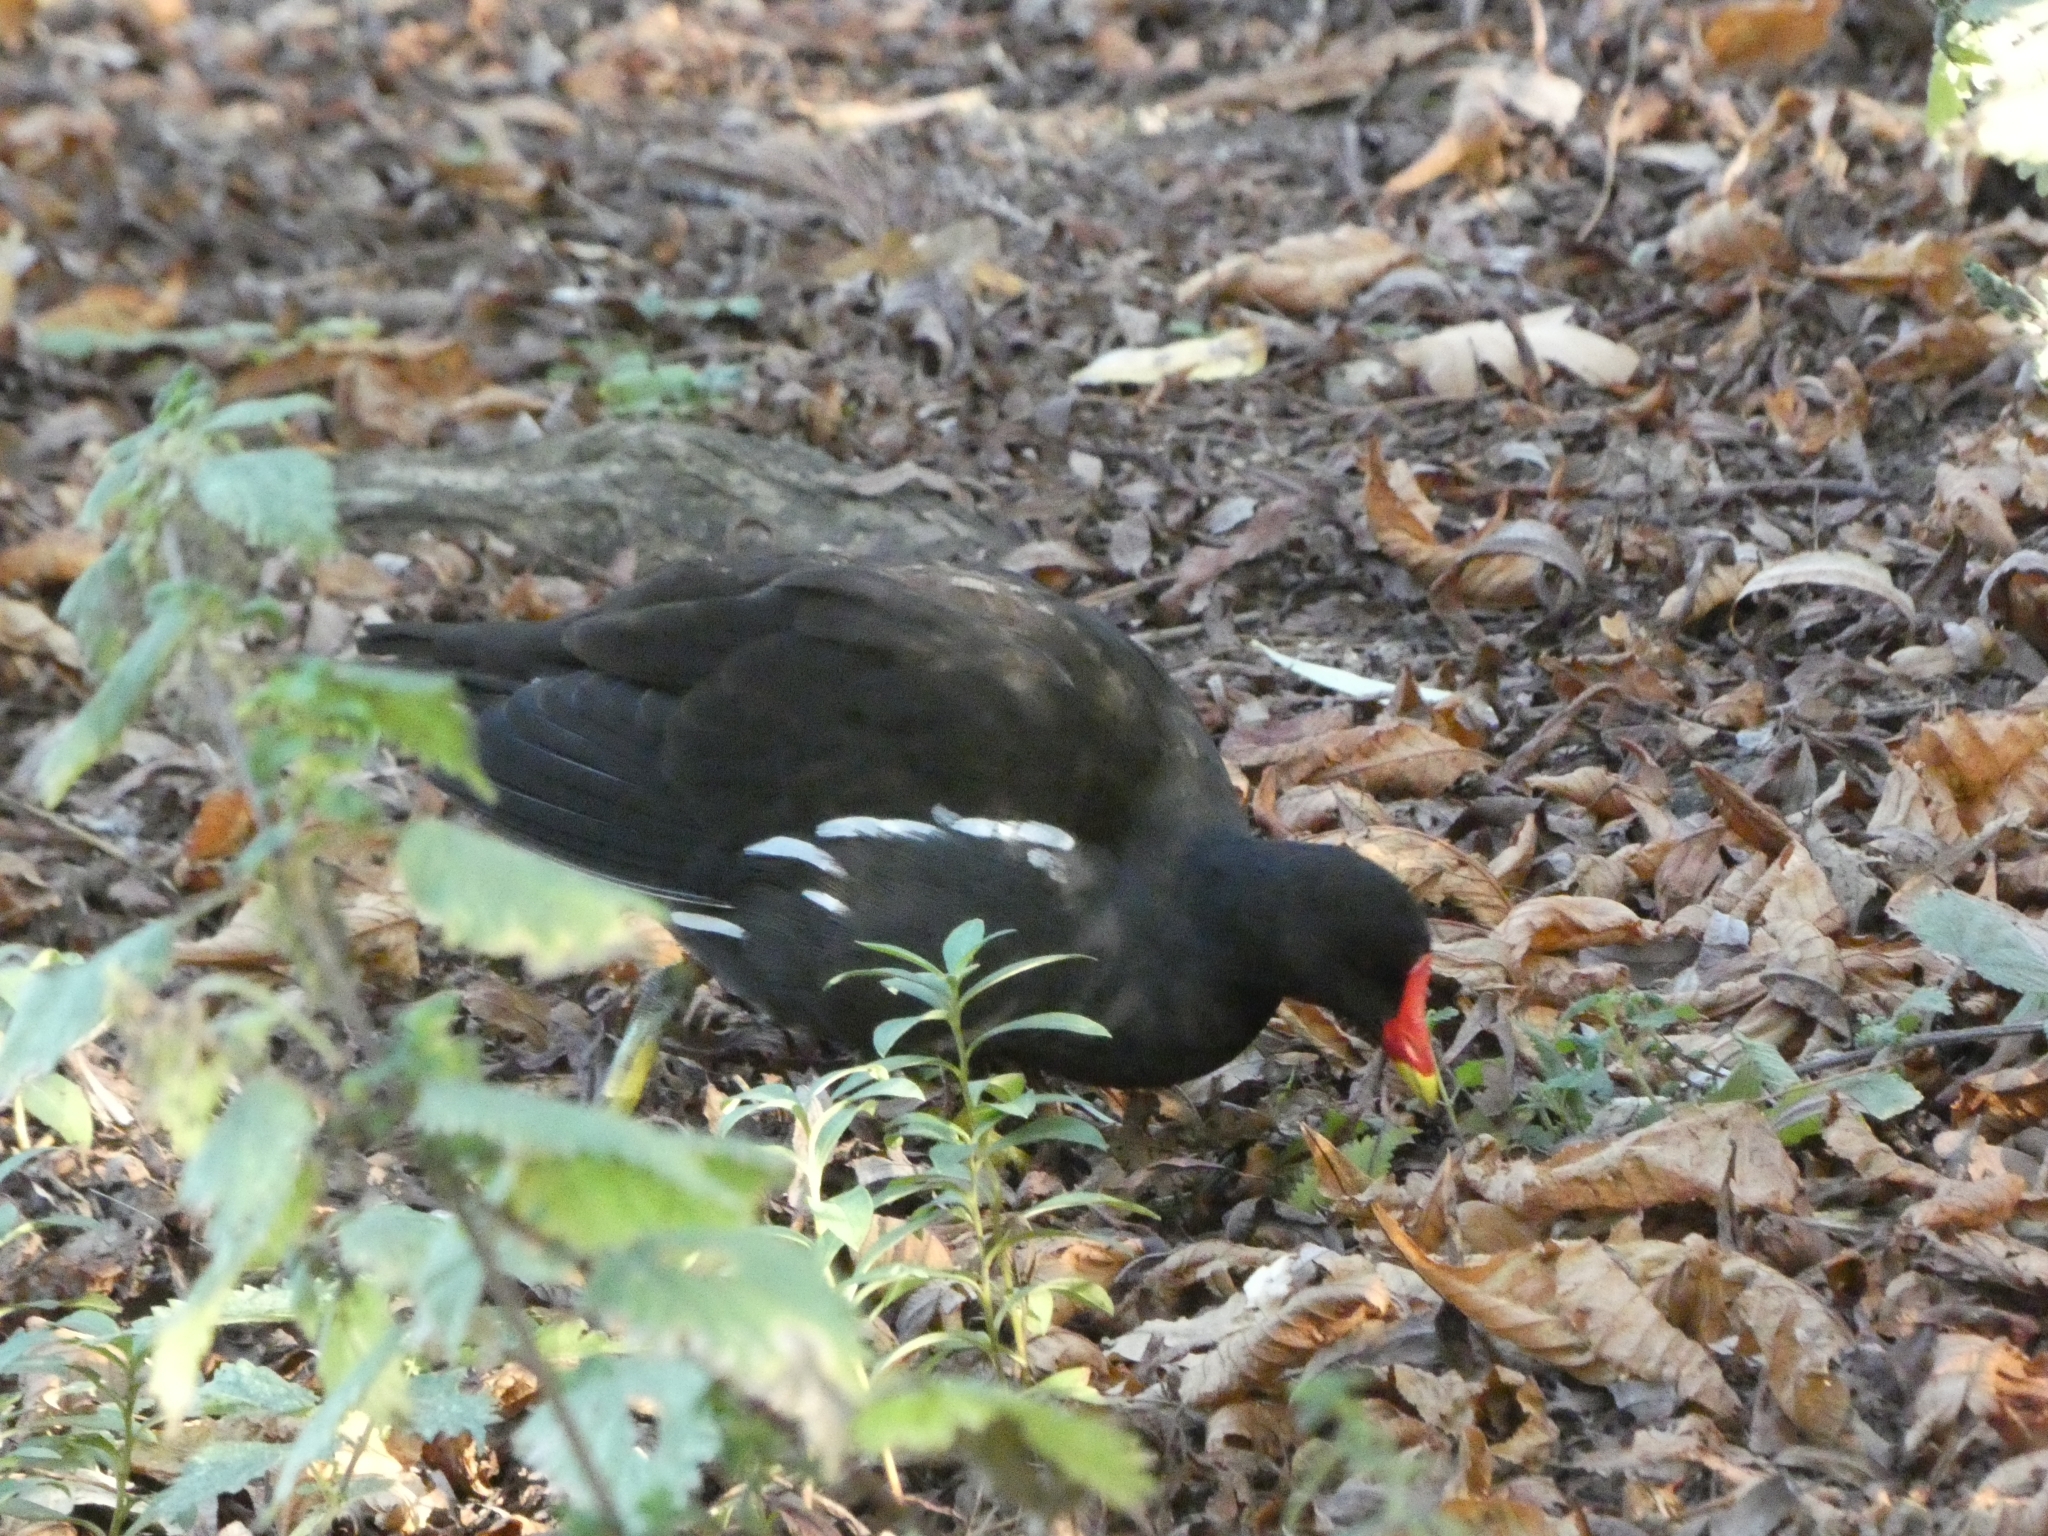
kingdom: Animalia
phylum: Chordata
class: Aves
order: Gruiformes
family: Rallidae
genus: Gallinula
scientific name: Gallinula chloropus
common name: Common moorhen
